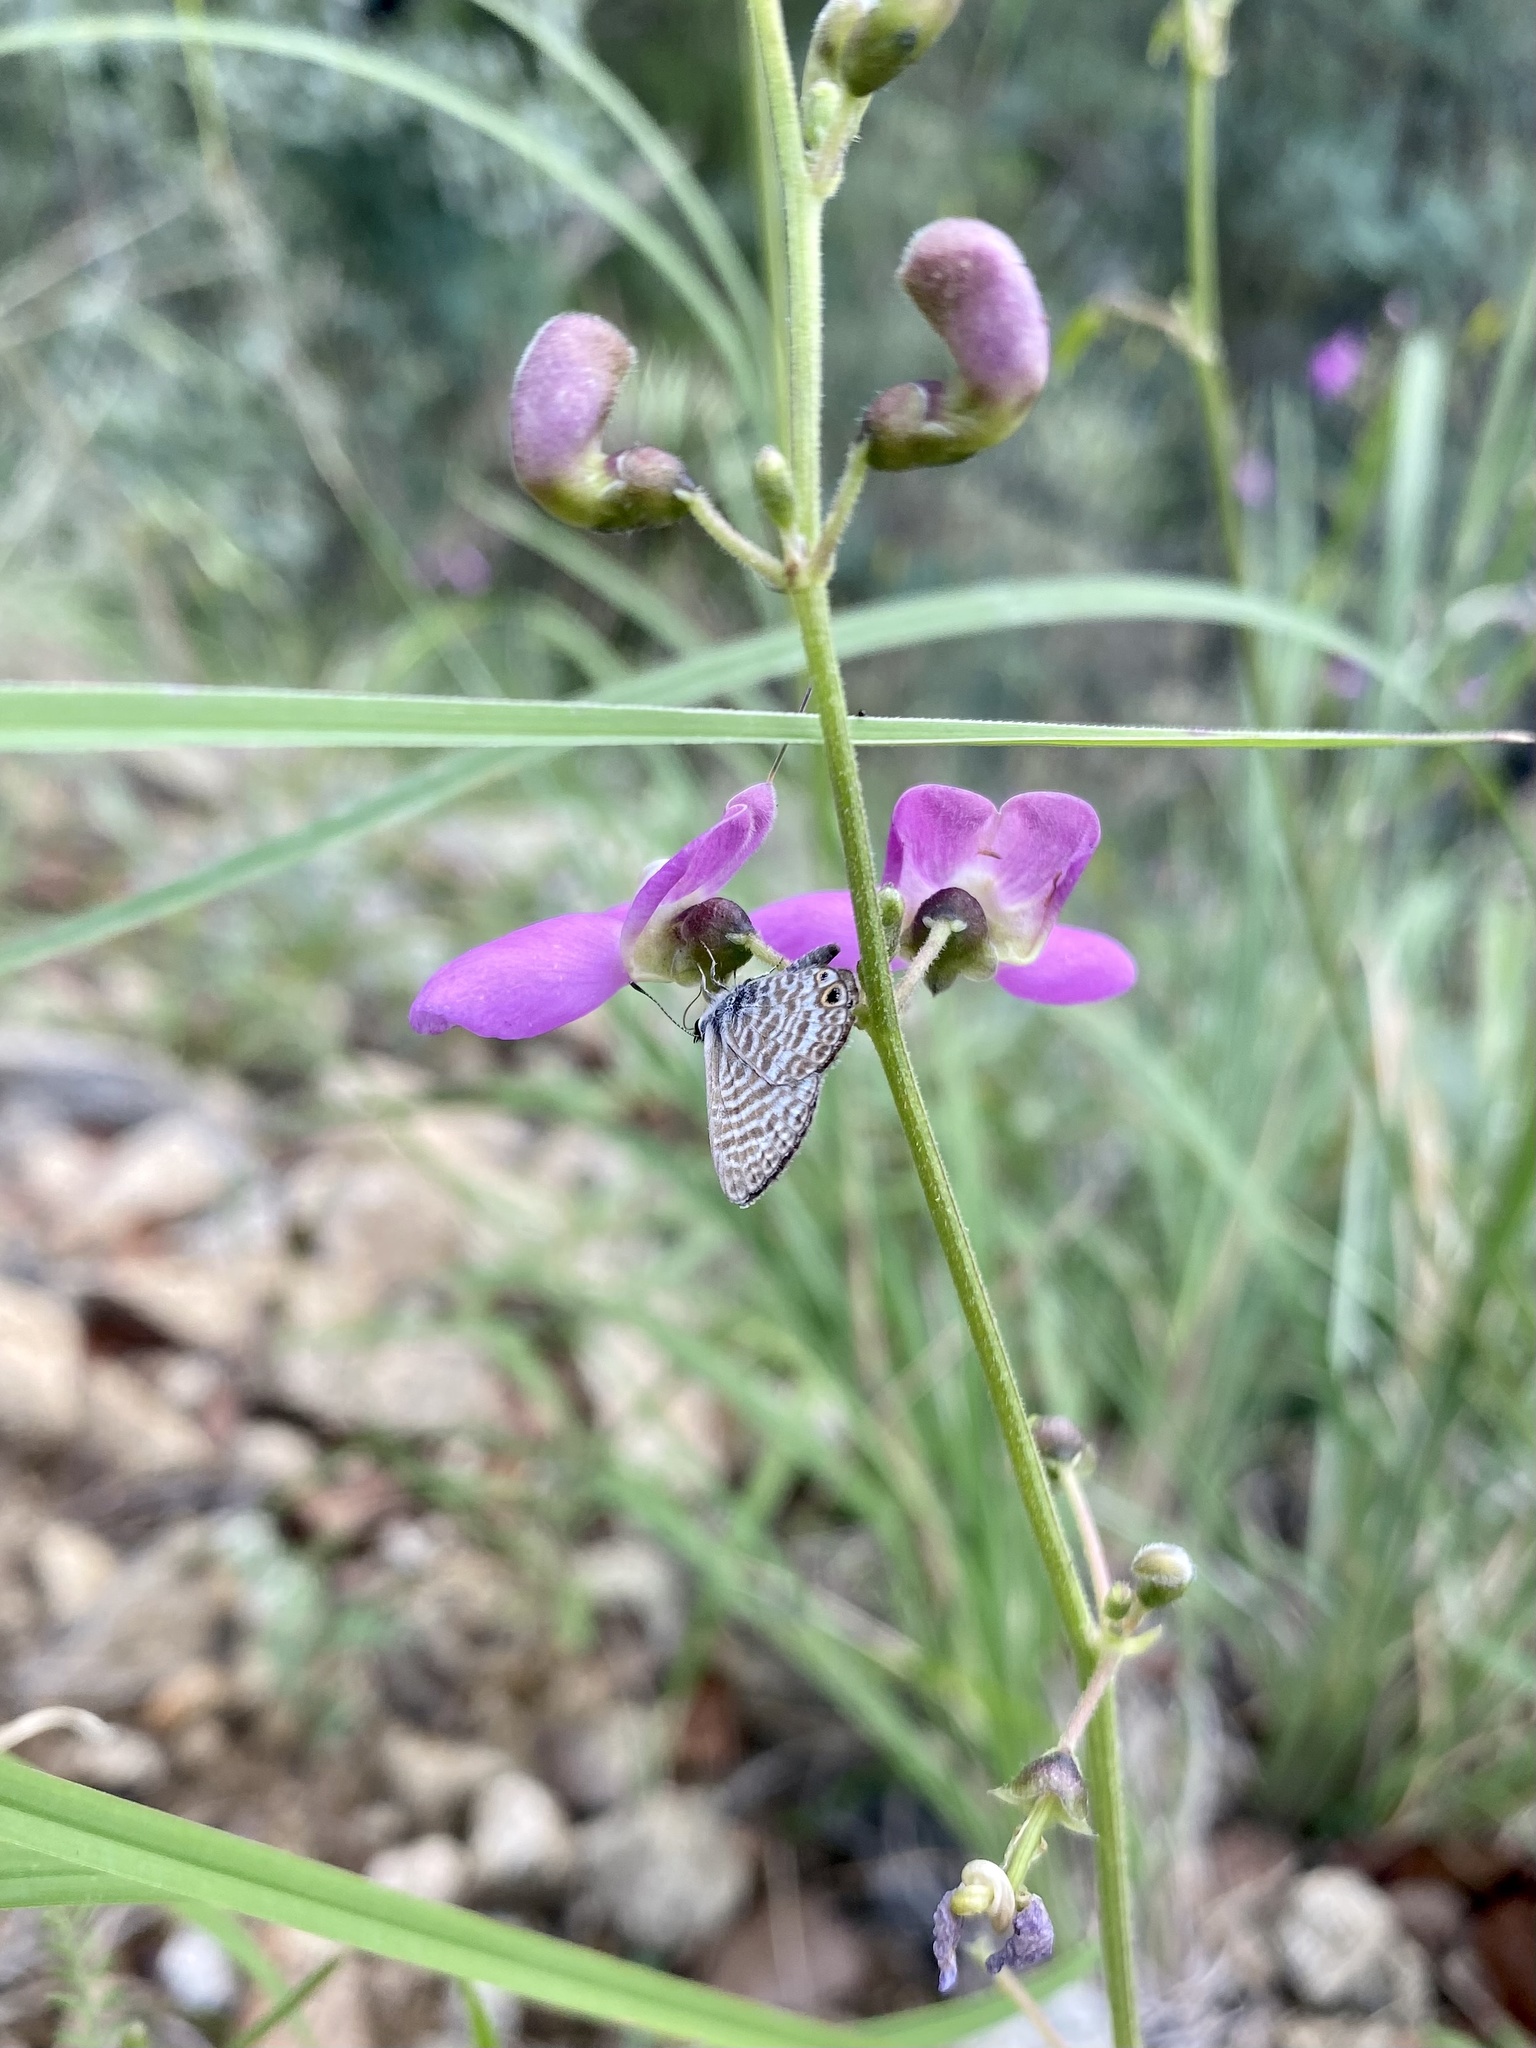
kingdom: Animalia
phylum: Arthropoda
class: Insecta
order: Lepidoptera
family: Lycaenidae
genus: Leptotes
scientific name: Leptotes marina
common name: Marine blue
